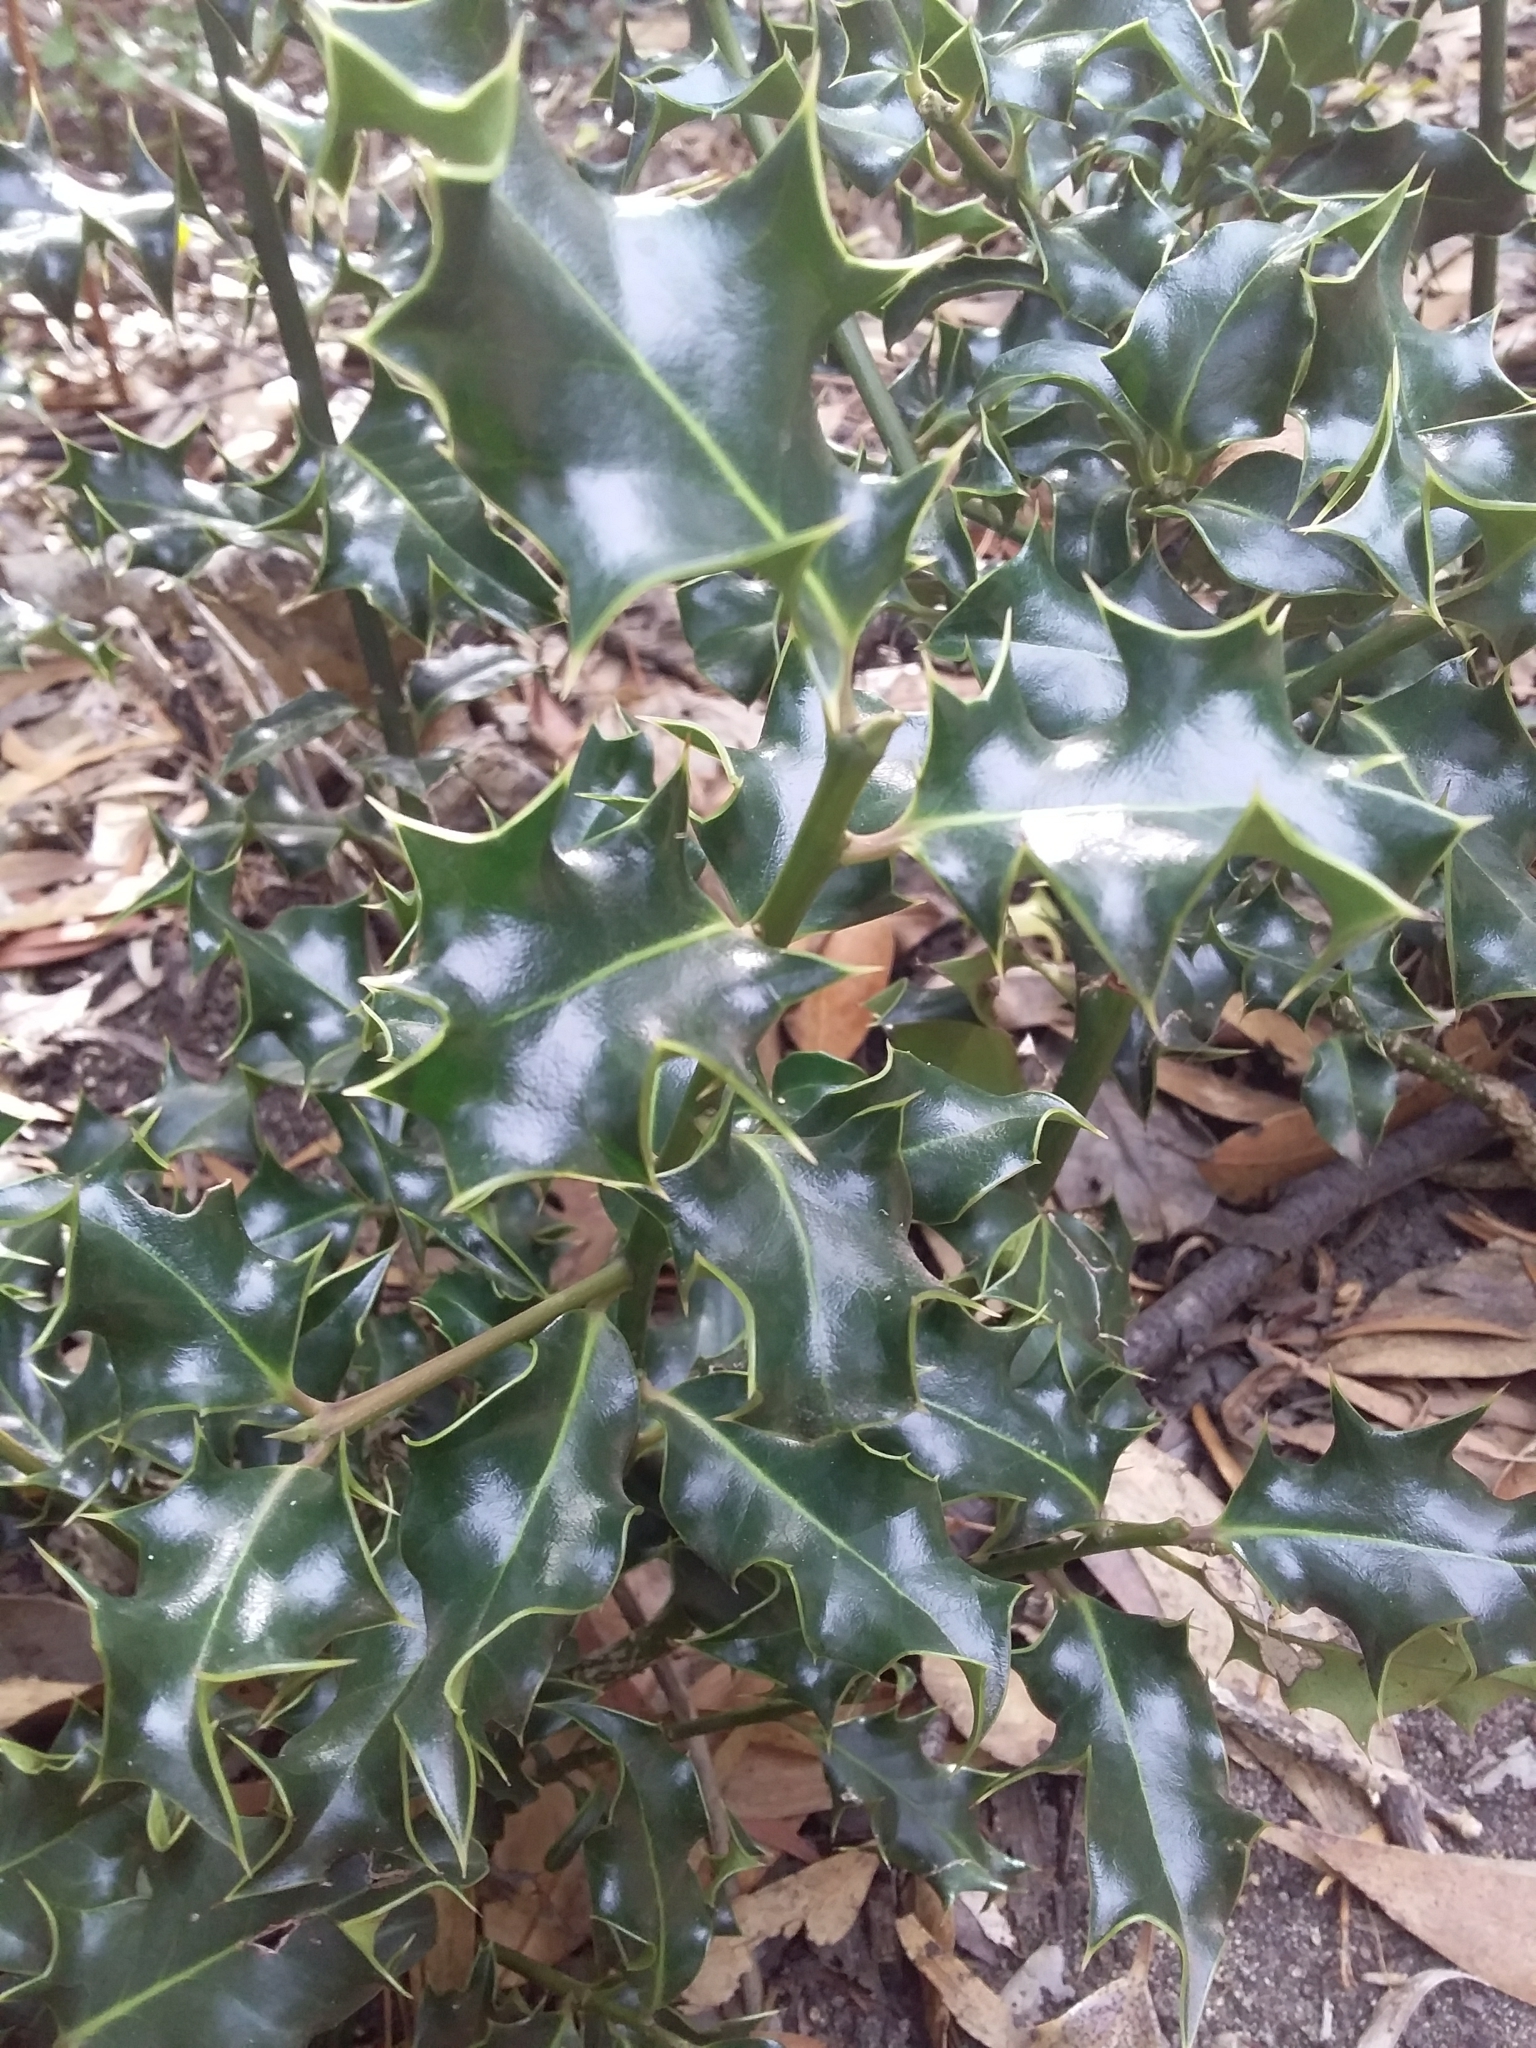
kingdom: Plantae
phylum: Tracheophyta
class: Magnoliopsida
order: Aquifoliales
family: Aquifoliaceae
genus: Ilex
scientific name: Ilex aquifolium
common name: English holly
